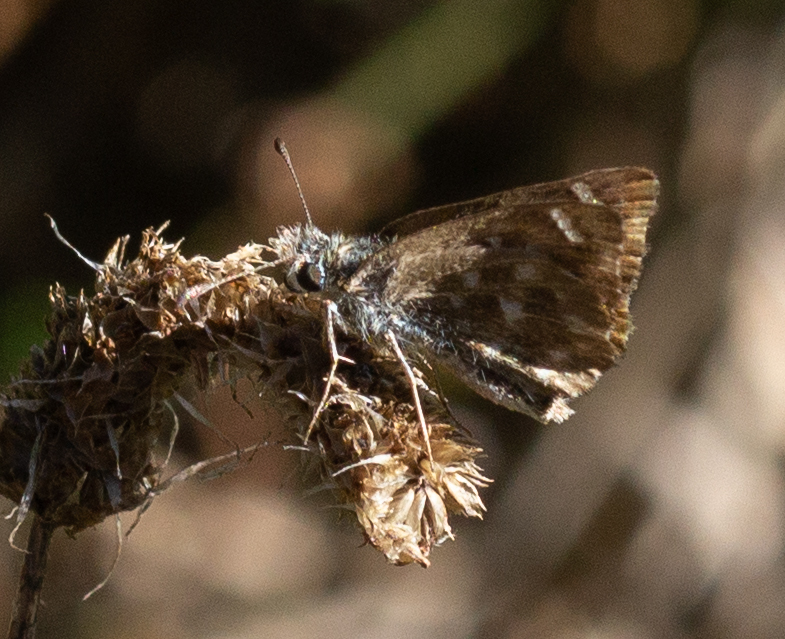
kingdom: Animalia
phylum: Arthropoda
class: Insecta
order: Lepidoptera
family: Hesperiidae
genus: Carcharodus
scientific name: Carcharodus alceae
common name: Mallow skipper
